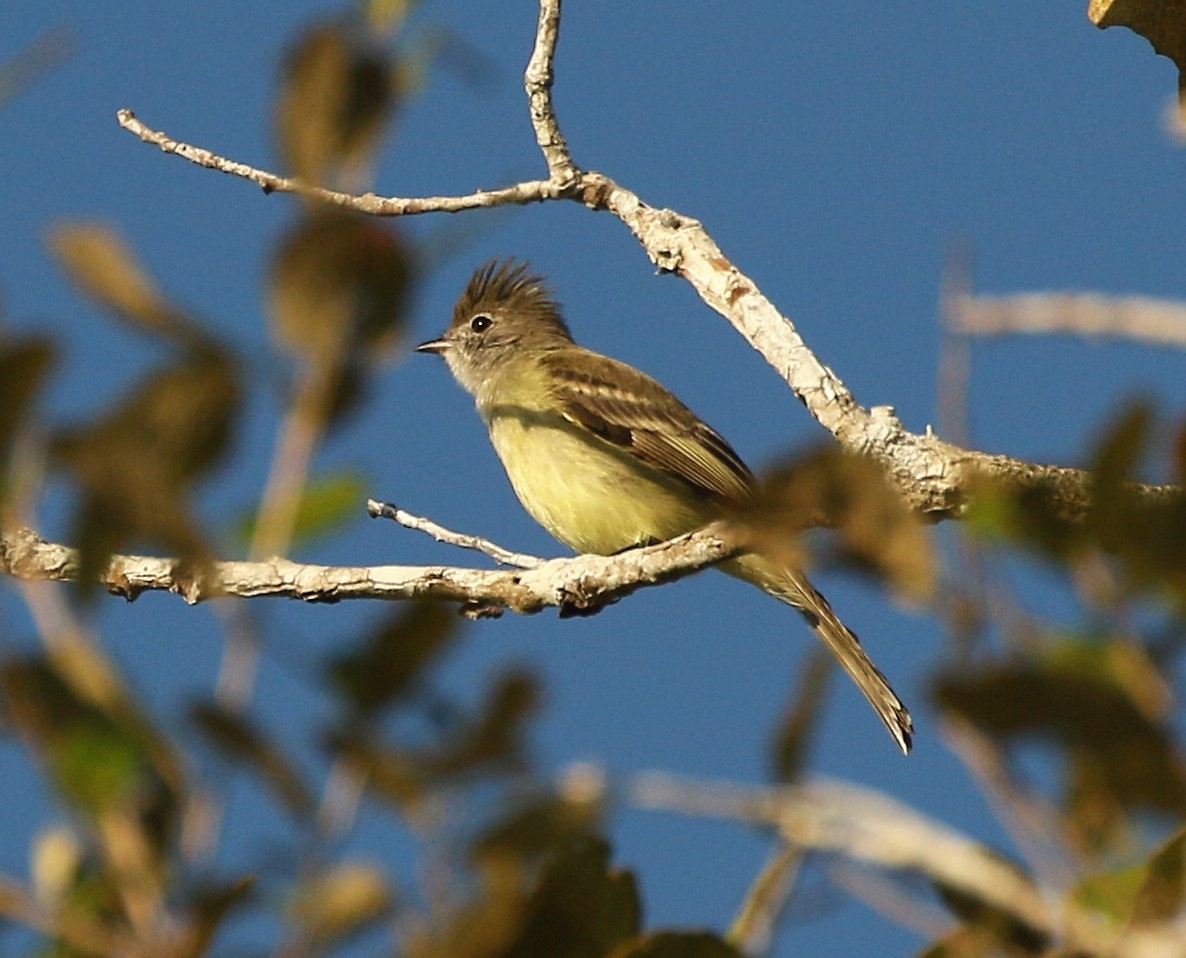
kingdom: Animalia
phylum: Chordata
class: Aves
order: Passeriformes
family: Tyrannidae
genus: Elaenia
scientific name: Elaenia flavogaster
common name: Yellow-bellied elaenia
